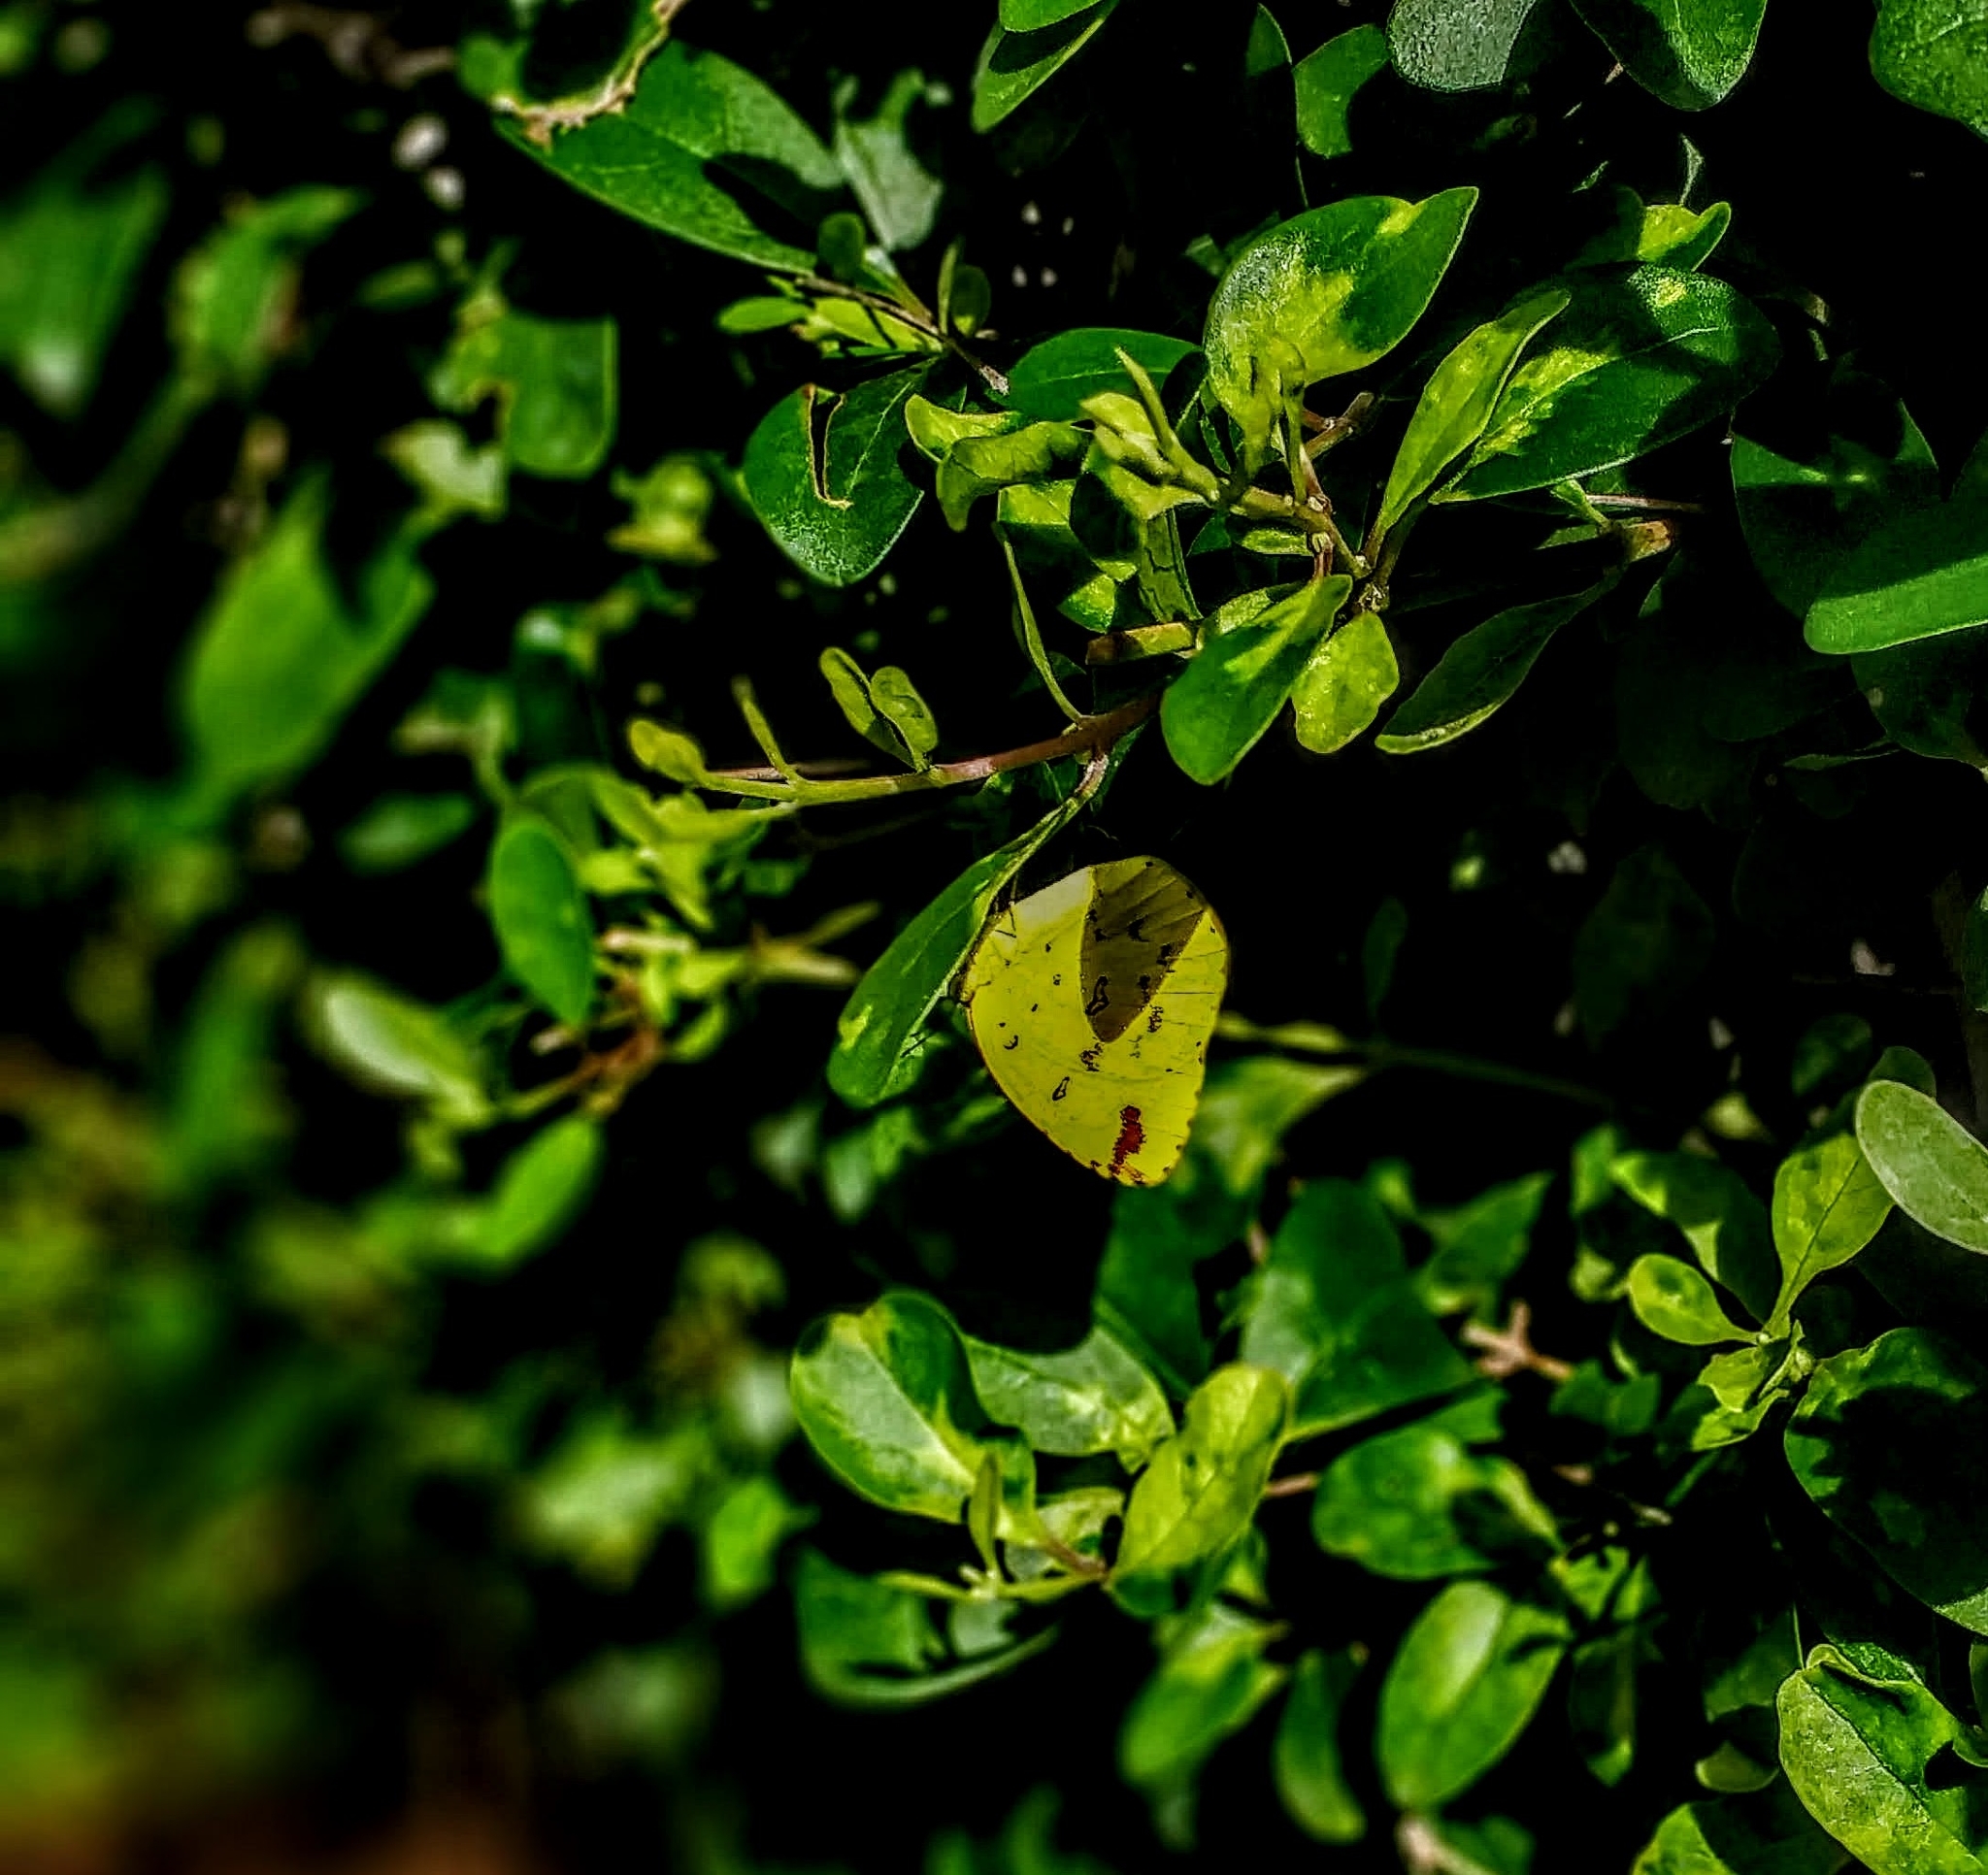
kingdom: Animalia
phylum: Arthropoda
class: Insecta
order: Lepidoptera
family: Pieridae
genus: Eurema
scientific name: Eurema hecabe
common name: Pale grass yellow
